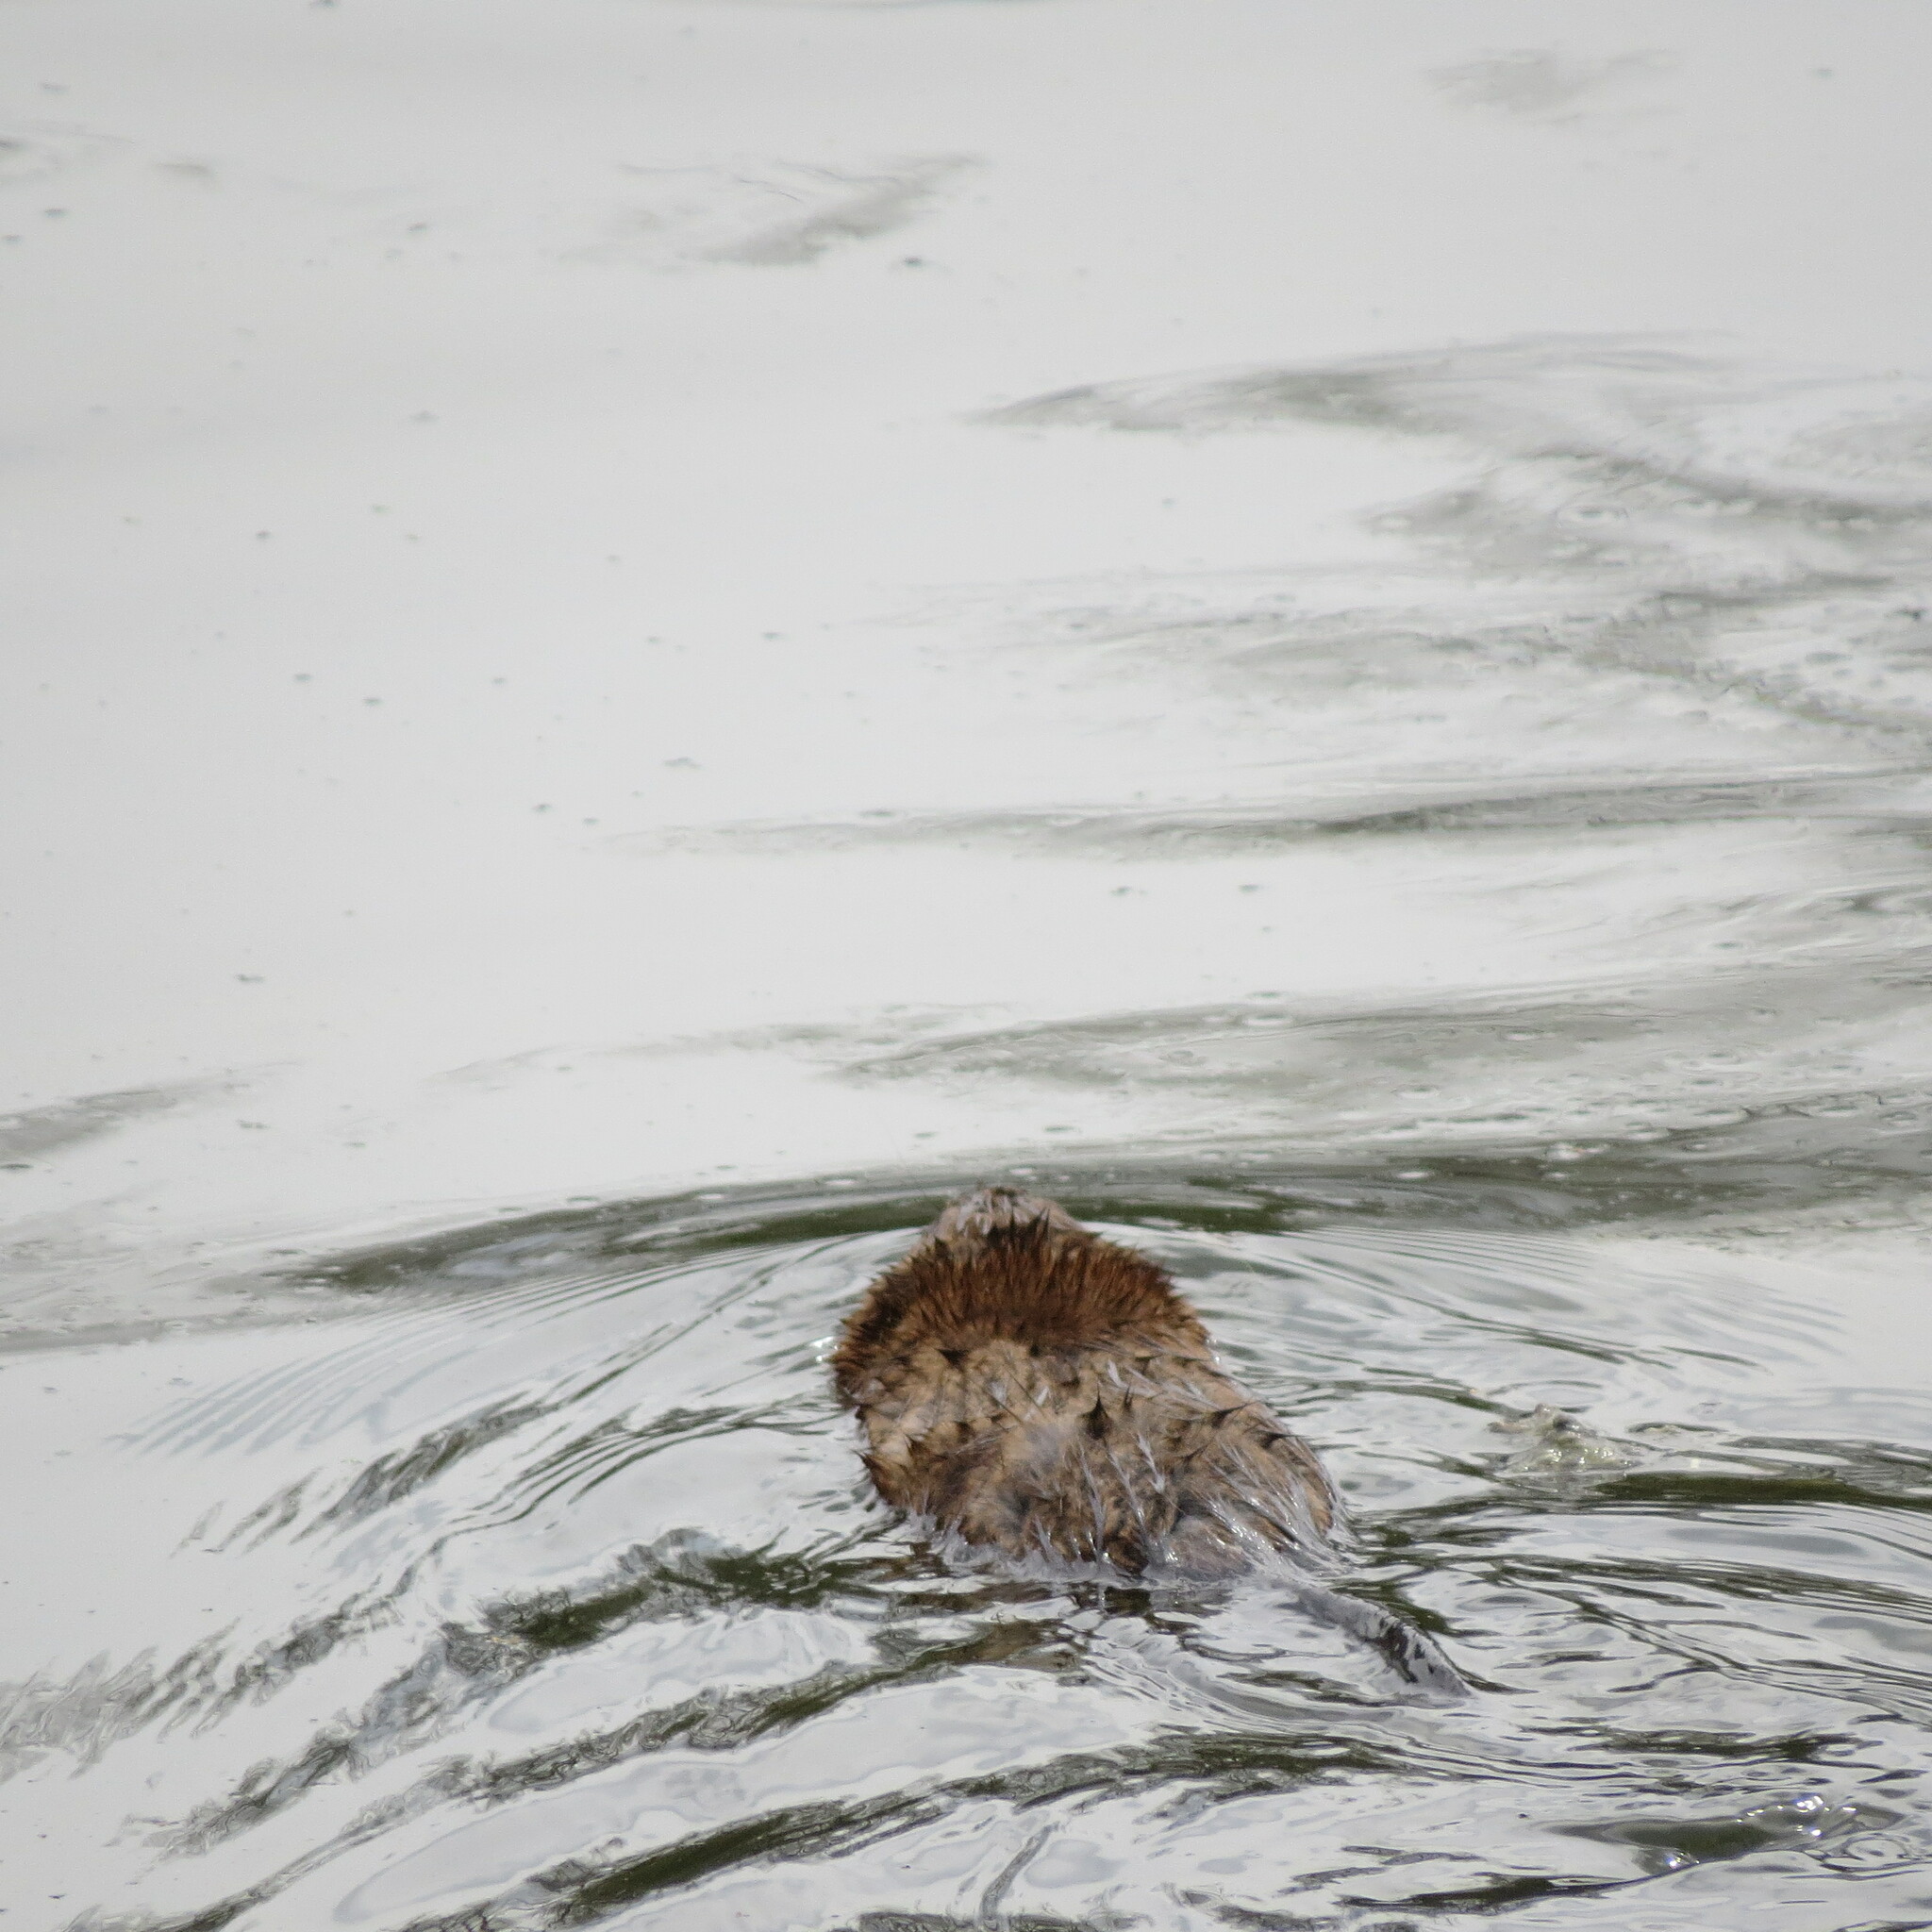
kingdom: Animalia
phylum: Chordata
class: Mammalia
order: Rodentia
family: Cricetidae
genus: Ondatra
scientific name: Ondatra zibethicus
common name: Muskrat
